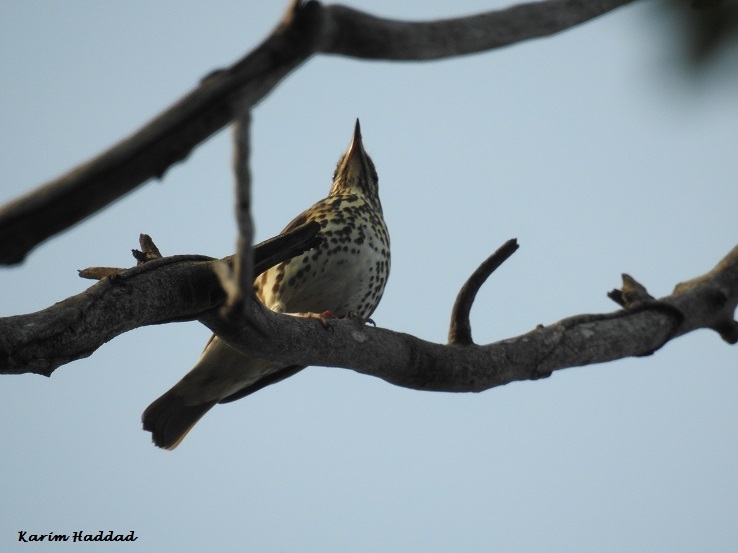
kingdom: Animalia
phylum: Chordata
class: Aves
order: Passeriformes
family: Turdidae
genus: Turdus
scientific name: Turdus philomelos
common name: Song thrush
